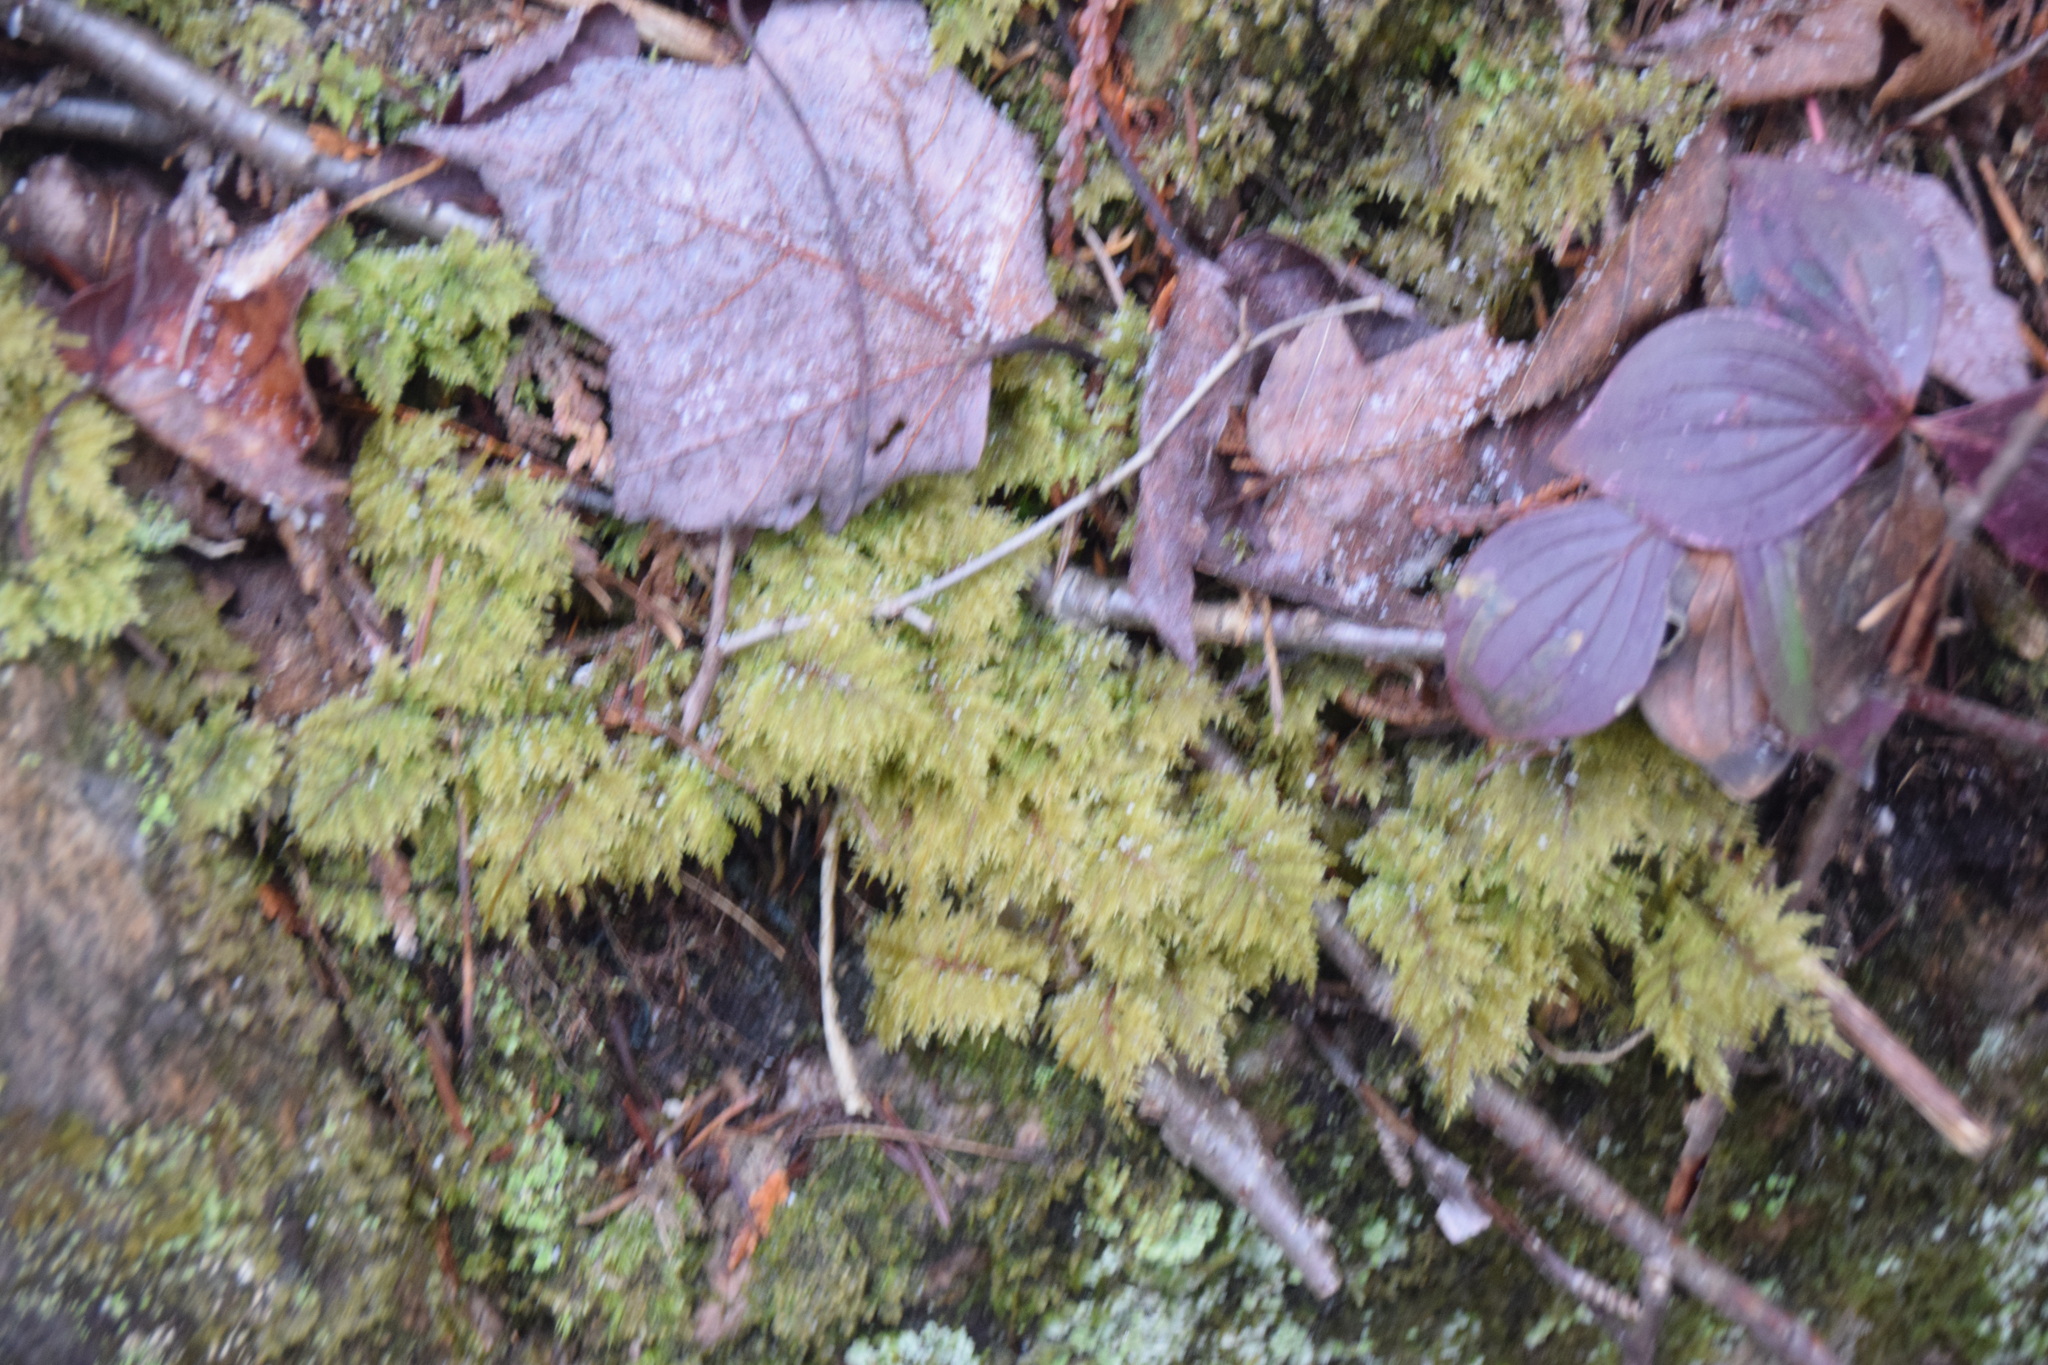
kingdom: Plantae
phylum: Bryophyta
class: Bryopsida
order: Hypnales
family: Hylocomiaceae
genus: Hylocomium
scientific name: Hylocomium splendens
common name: Stairstep moss
